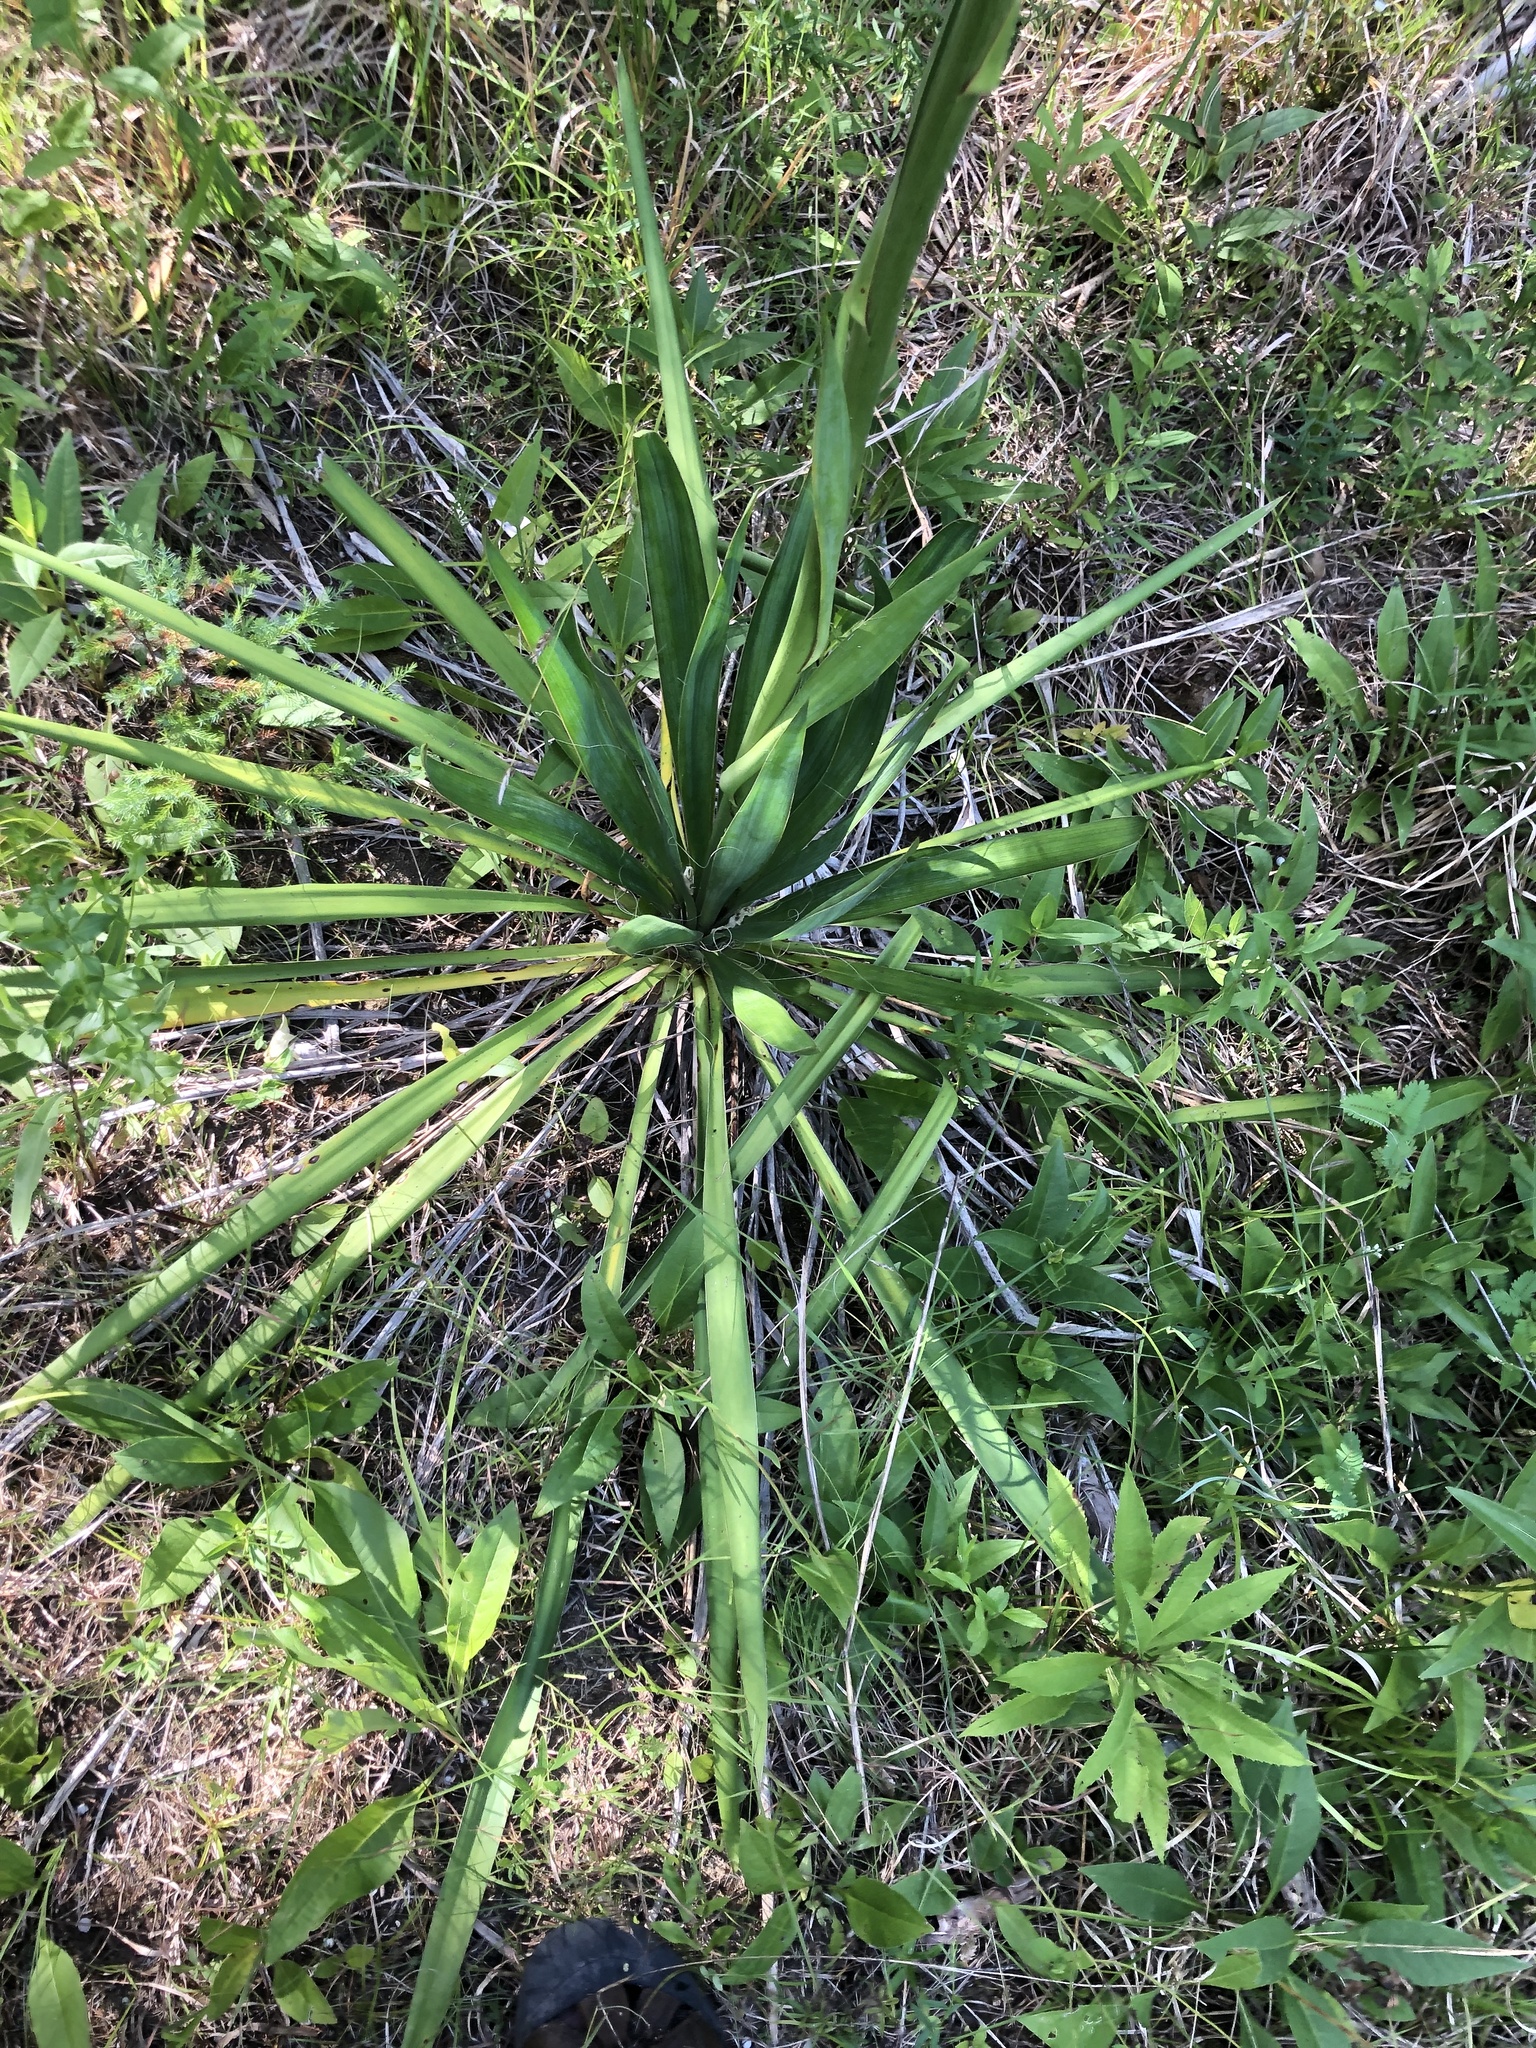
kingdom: Plantae
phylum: Tracheophyta
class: Liliopsida
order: Asparagales
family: Asparagaceae
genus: Yucca
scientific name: Yucca flaccida
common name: Adam's-needle
